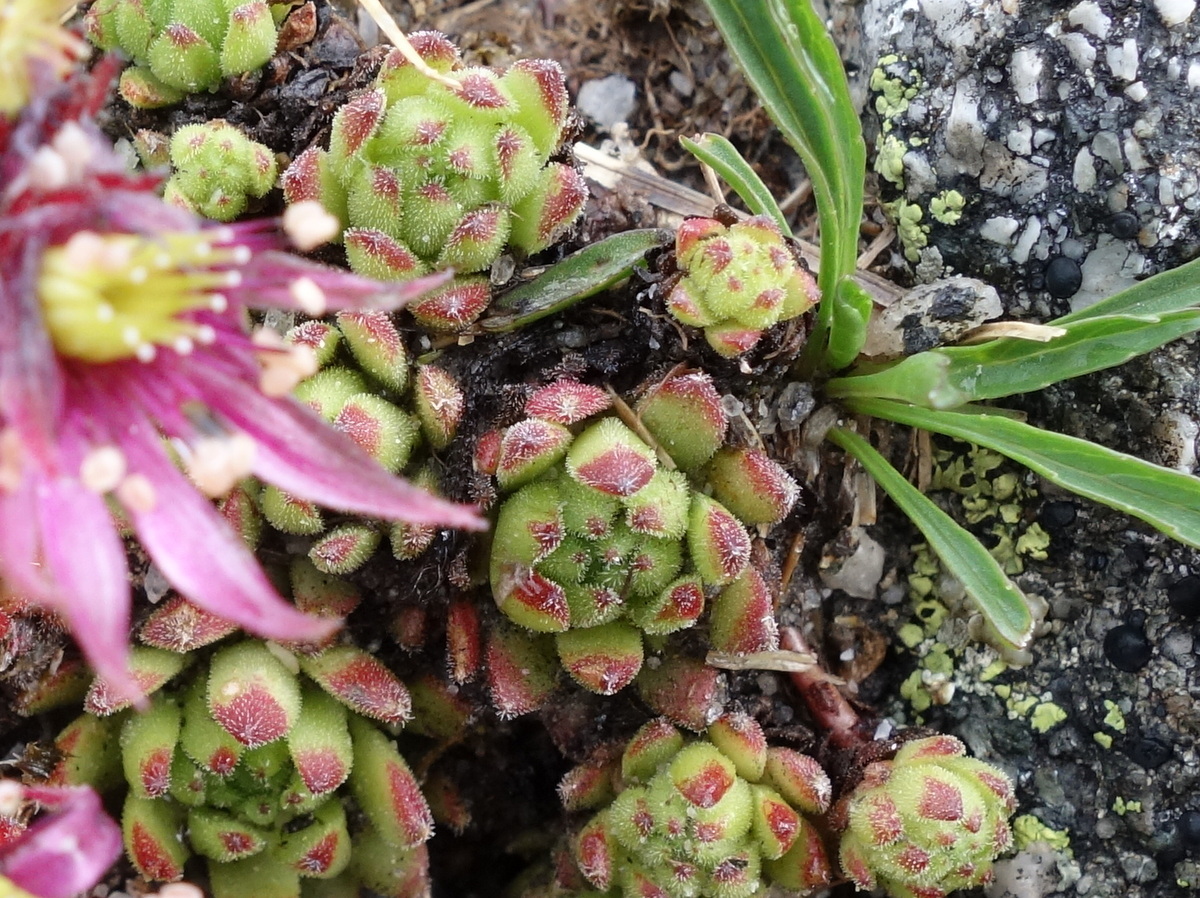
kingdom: Plantae
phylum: Tracheophyta
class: Magnoliopsida
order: Saxifragales
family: Crassulaceae
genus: Sempervivum
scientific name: Sempervivum montanum
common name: Mountain house-leek
